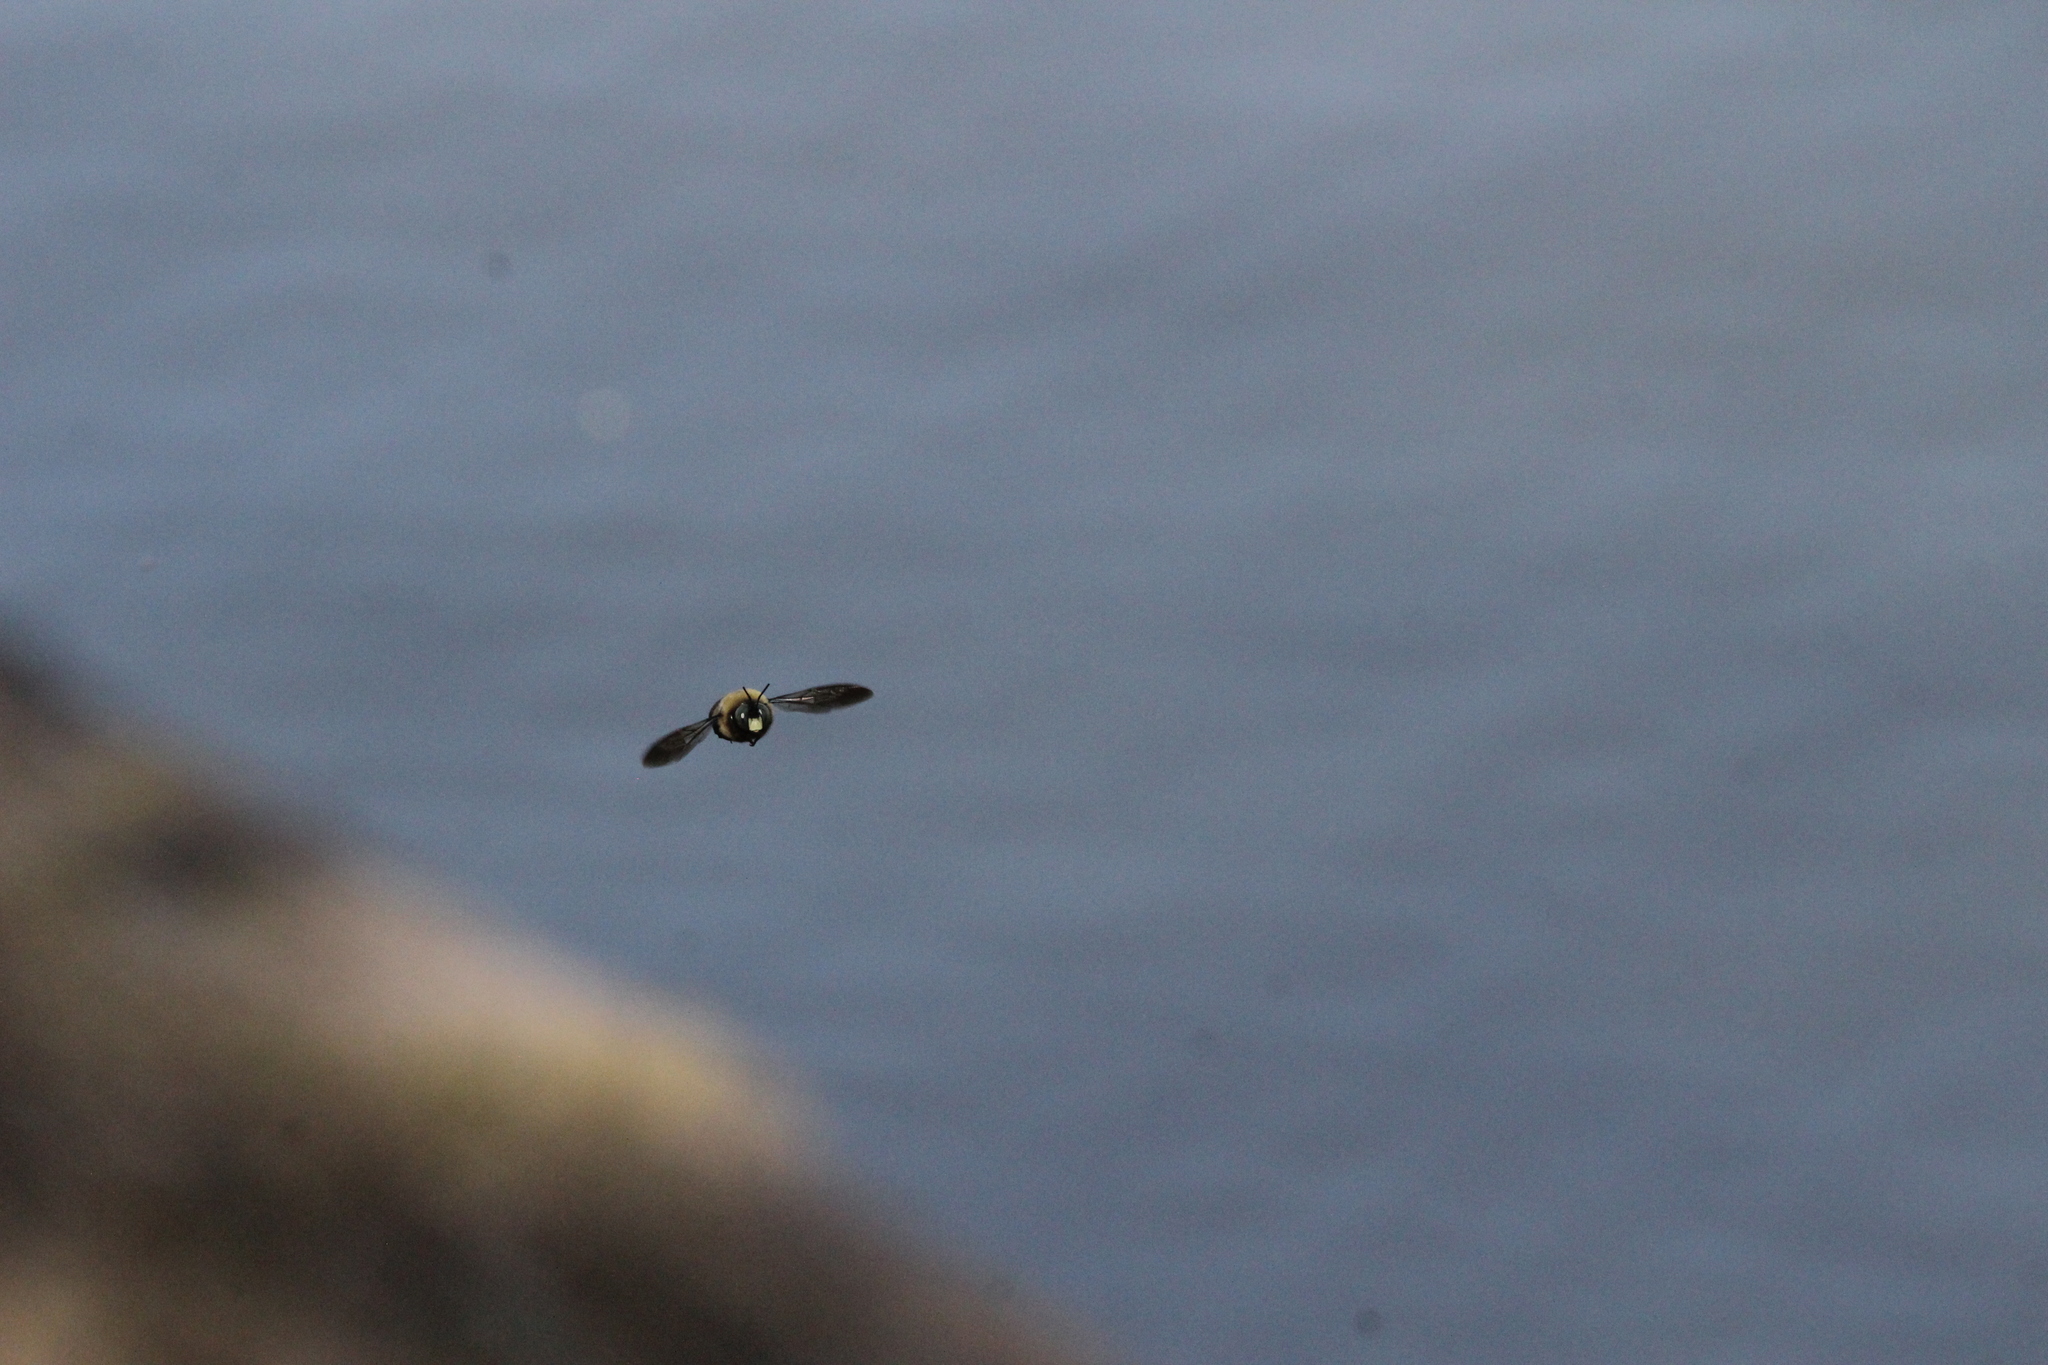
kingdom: Animalia
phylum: Arthropoda
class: Insecta
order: Hymenoptera
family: Apidae
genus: Xylocopa
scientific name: Xylocopa virginica
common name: Carpenter bee
